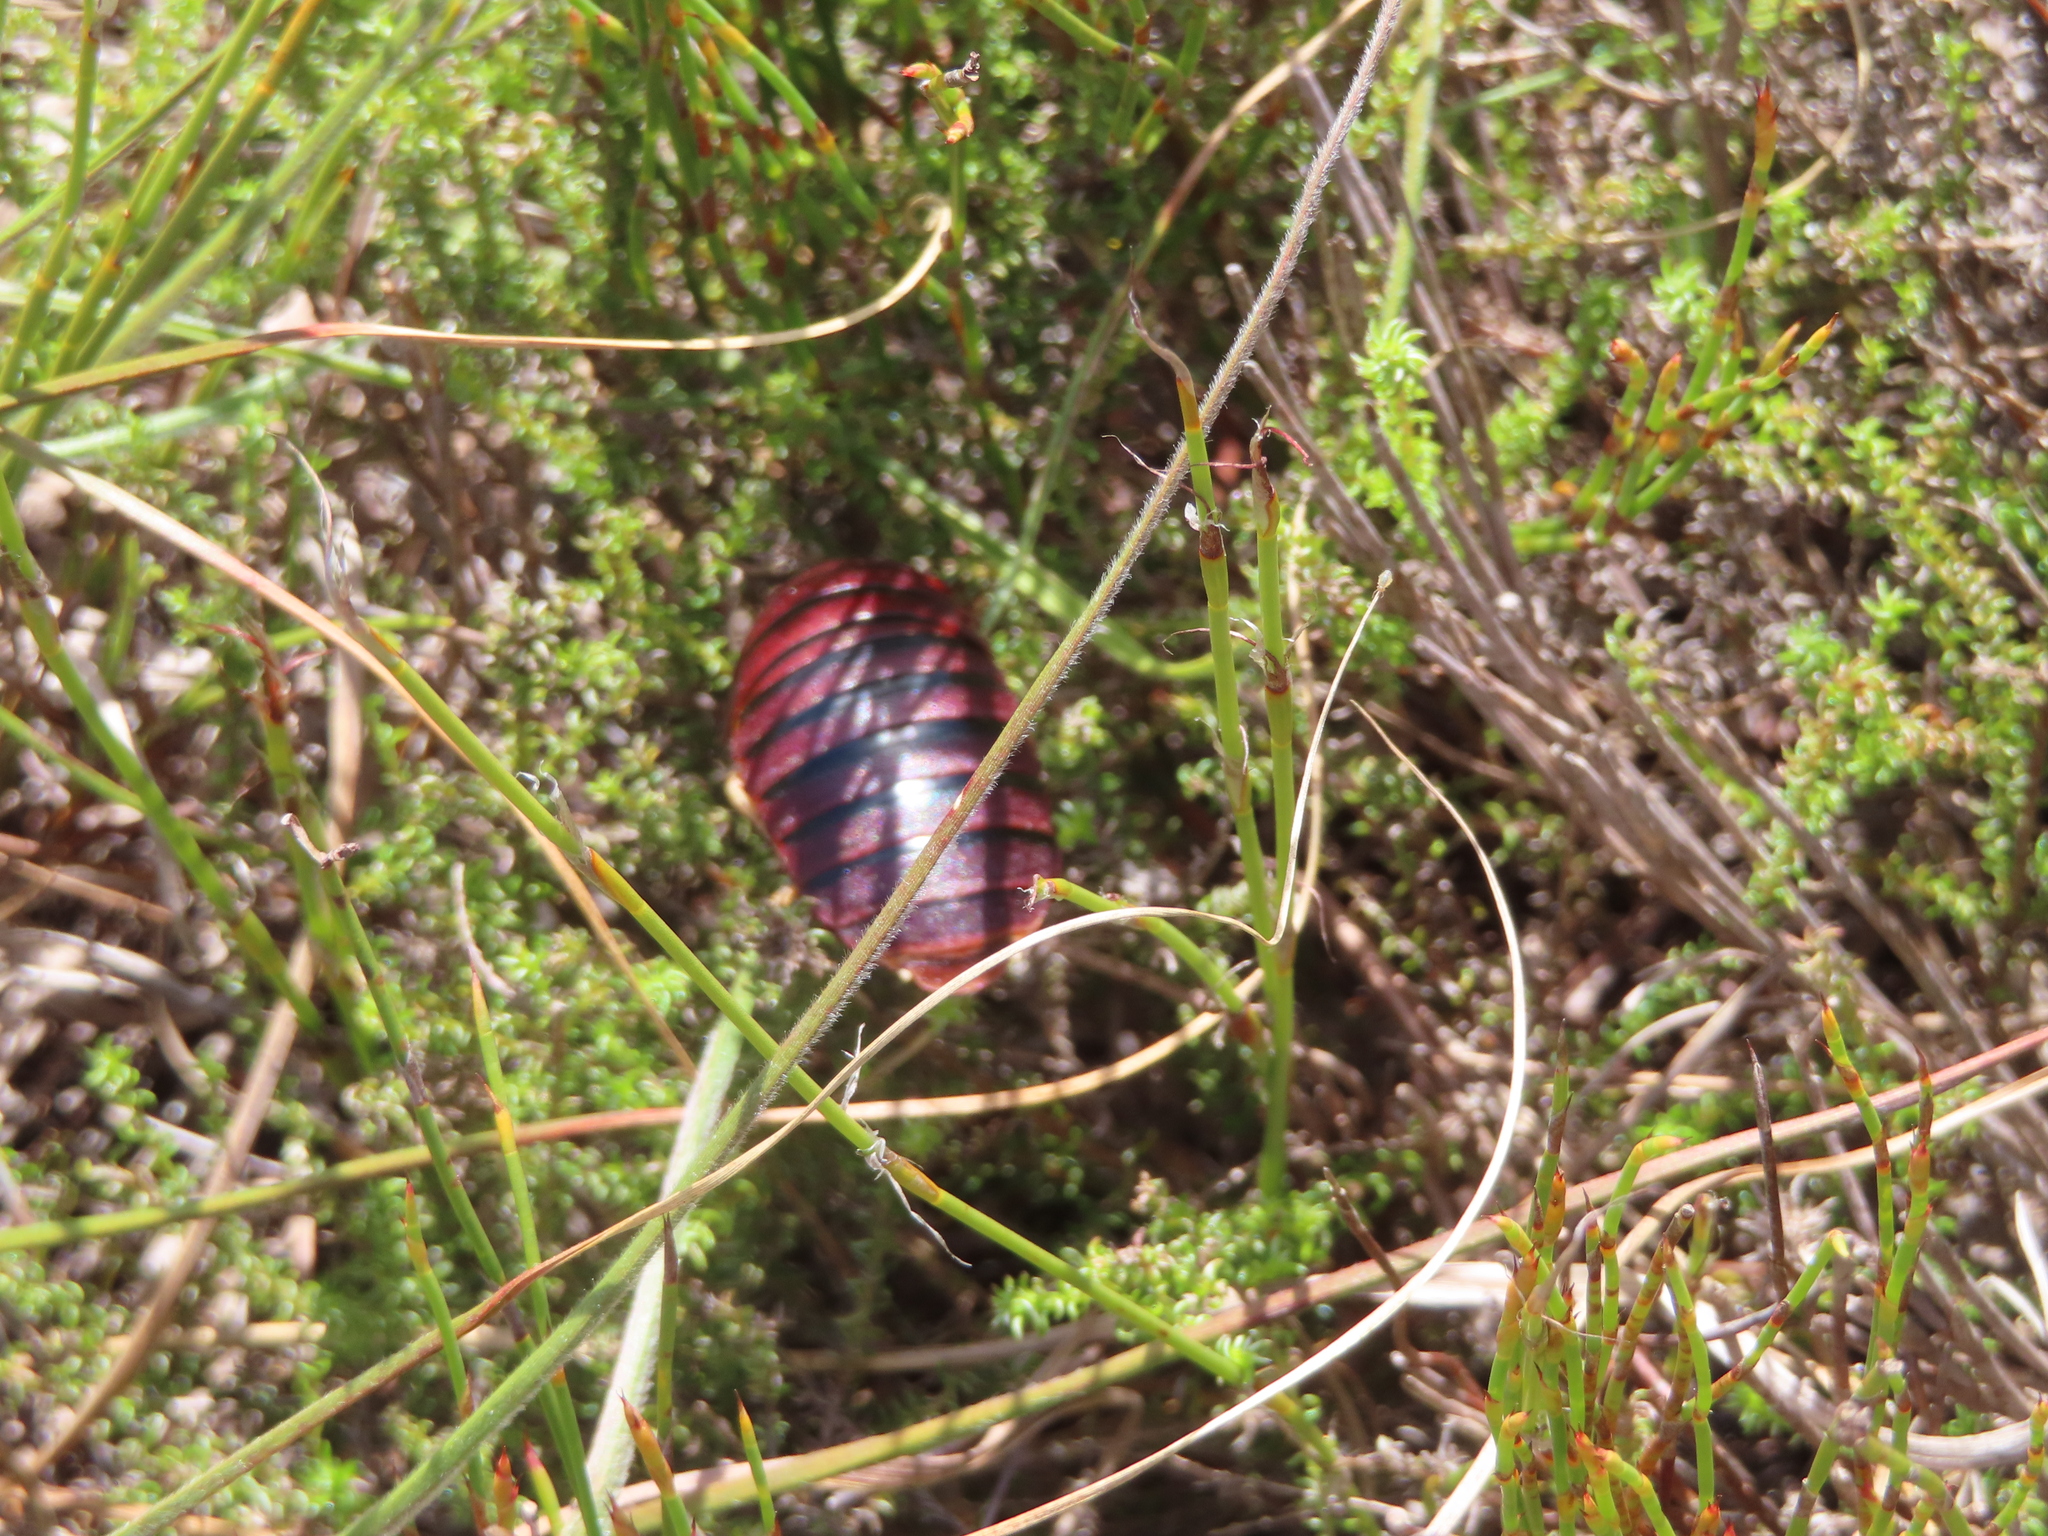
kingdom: Animalia
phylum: Arthropoda
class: Insecta
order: Blattodea
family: Blaberidae
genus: Aptera
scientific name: Aptera fusca
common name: Cape mountain cockroach
